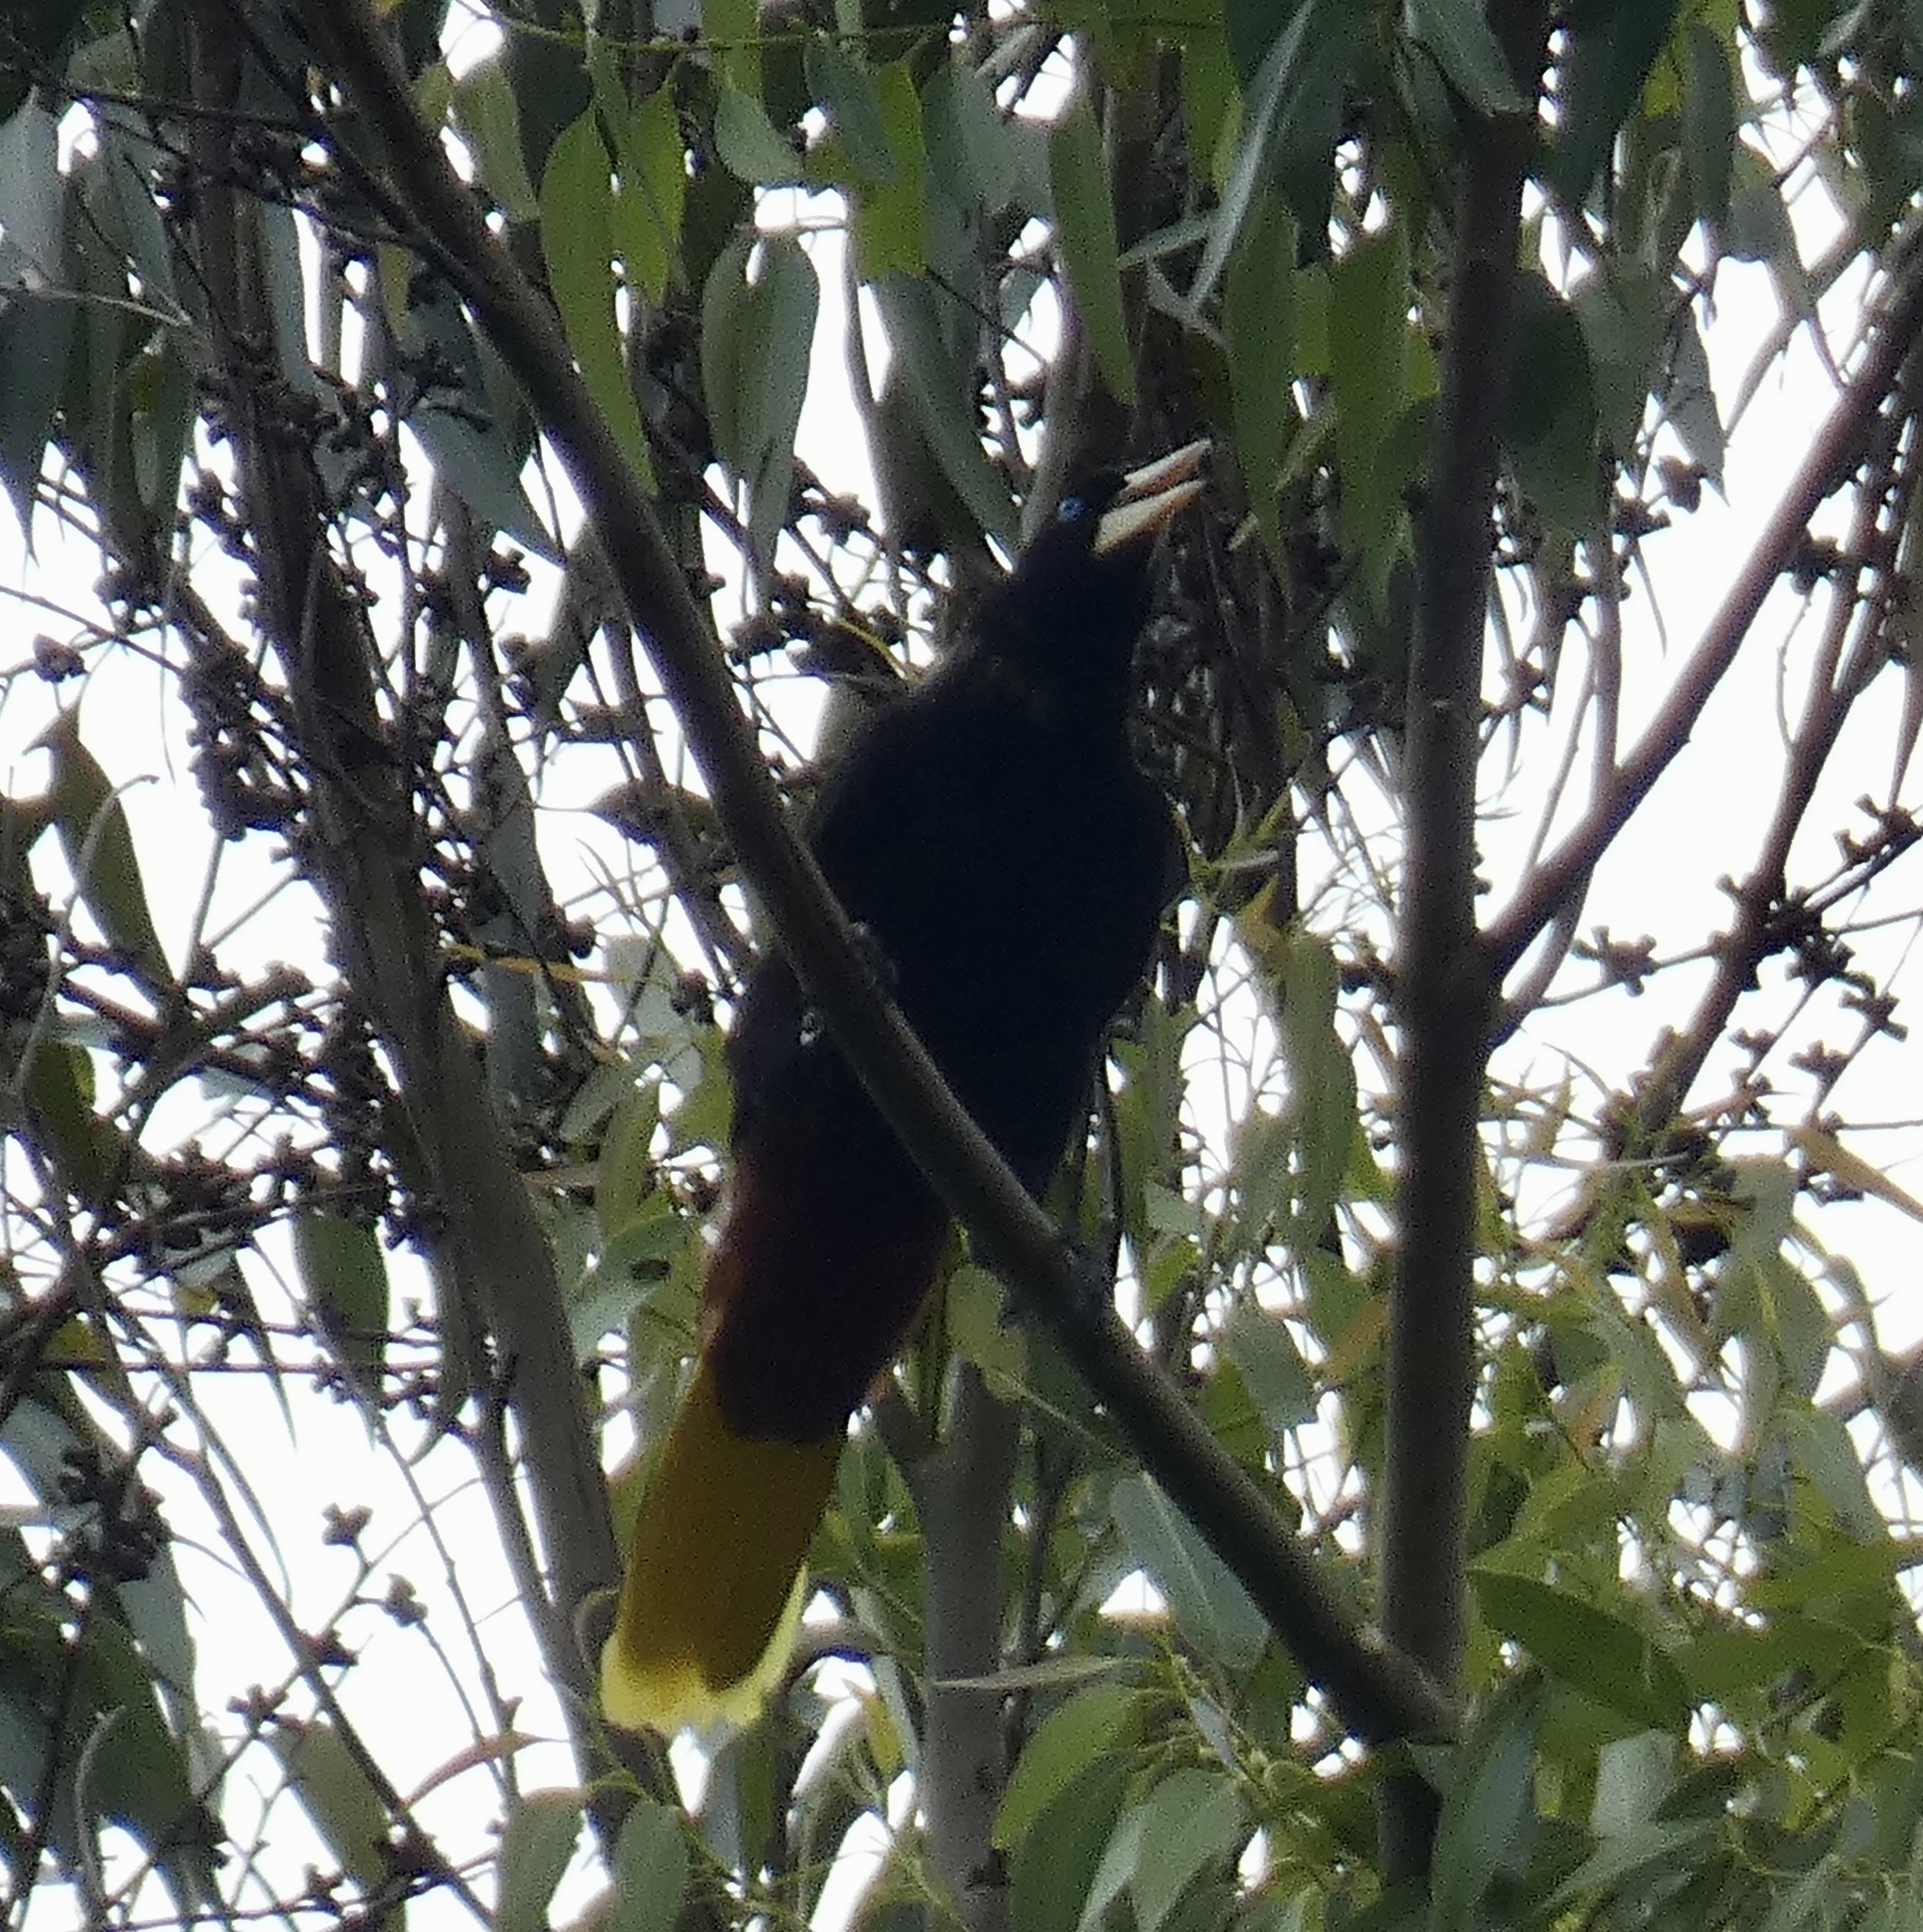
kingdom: Animalia
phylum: Chordata
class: Aves
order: Passeriformes
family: Icteridae
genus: Psarocolius
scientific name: Psarocolius decumanus
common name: Crested oropendola
